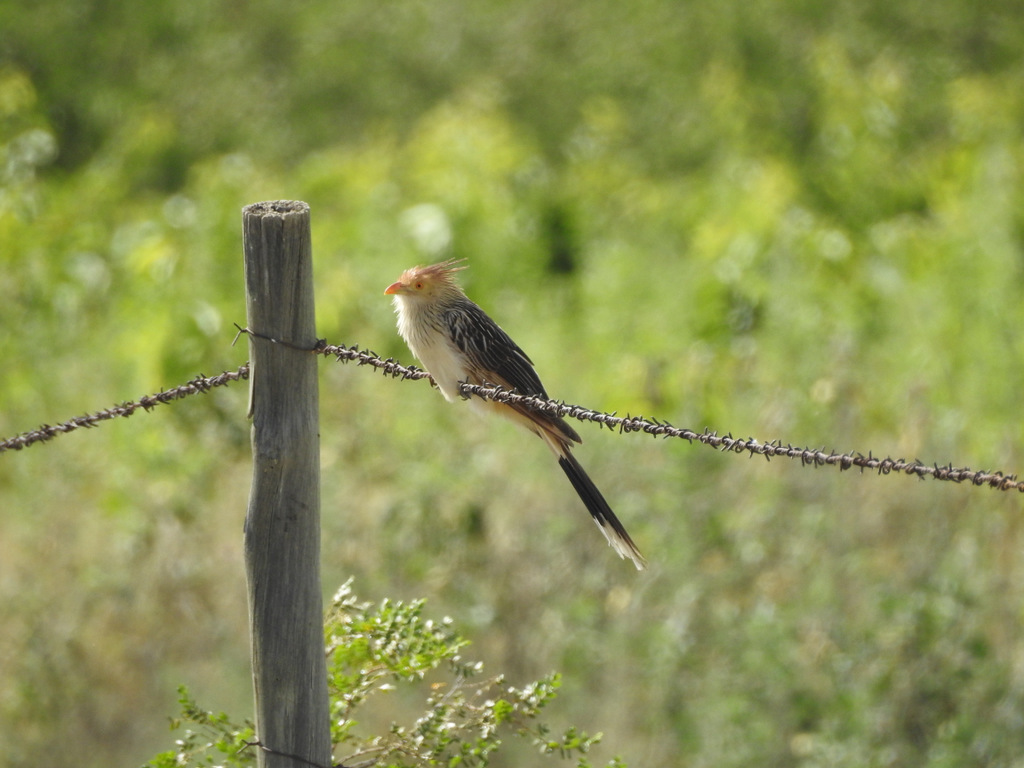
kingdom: Animalia
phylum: Chordata
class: Aves
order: Cuculiformes
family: Cuculidae
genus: Guira
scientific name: Guira guira
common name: Guira cuckoo
